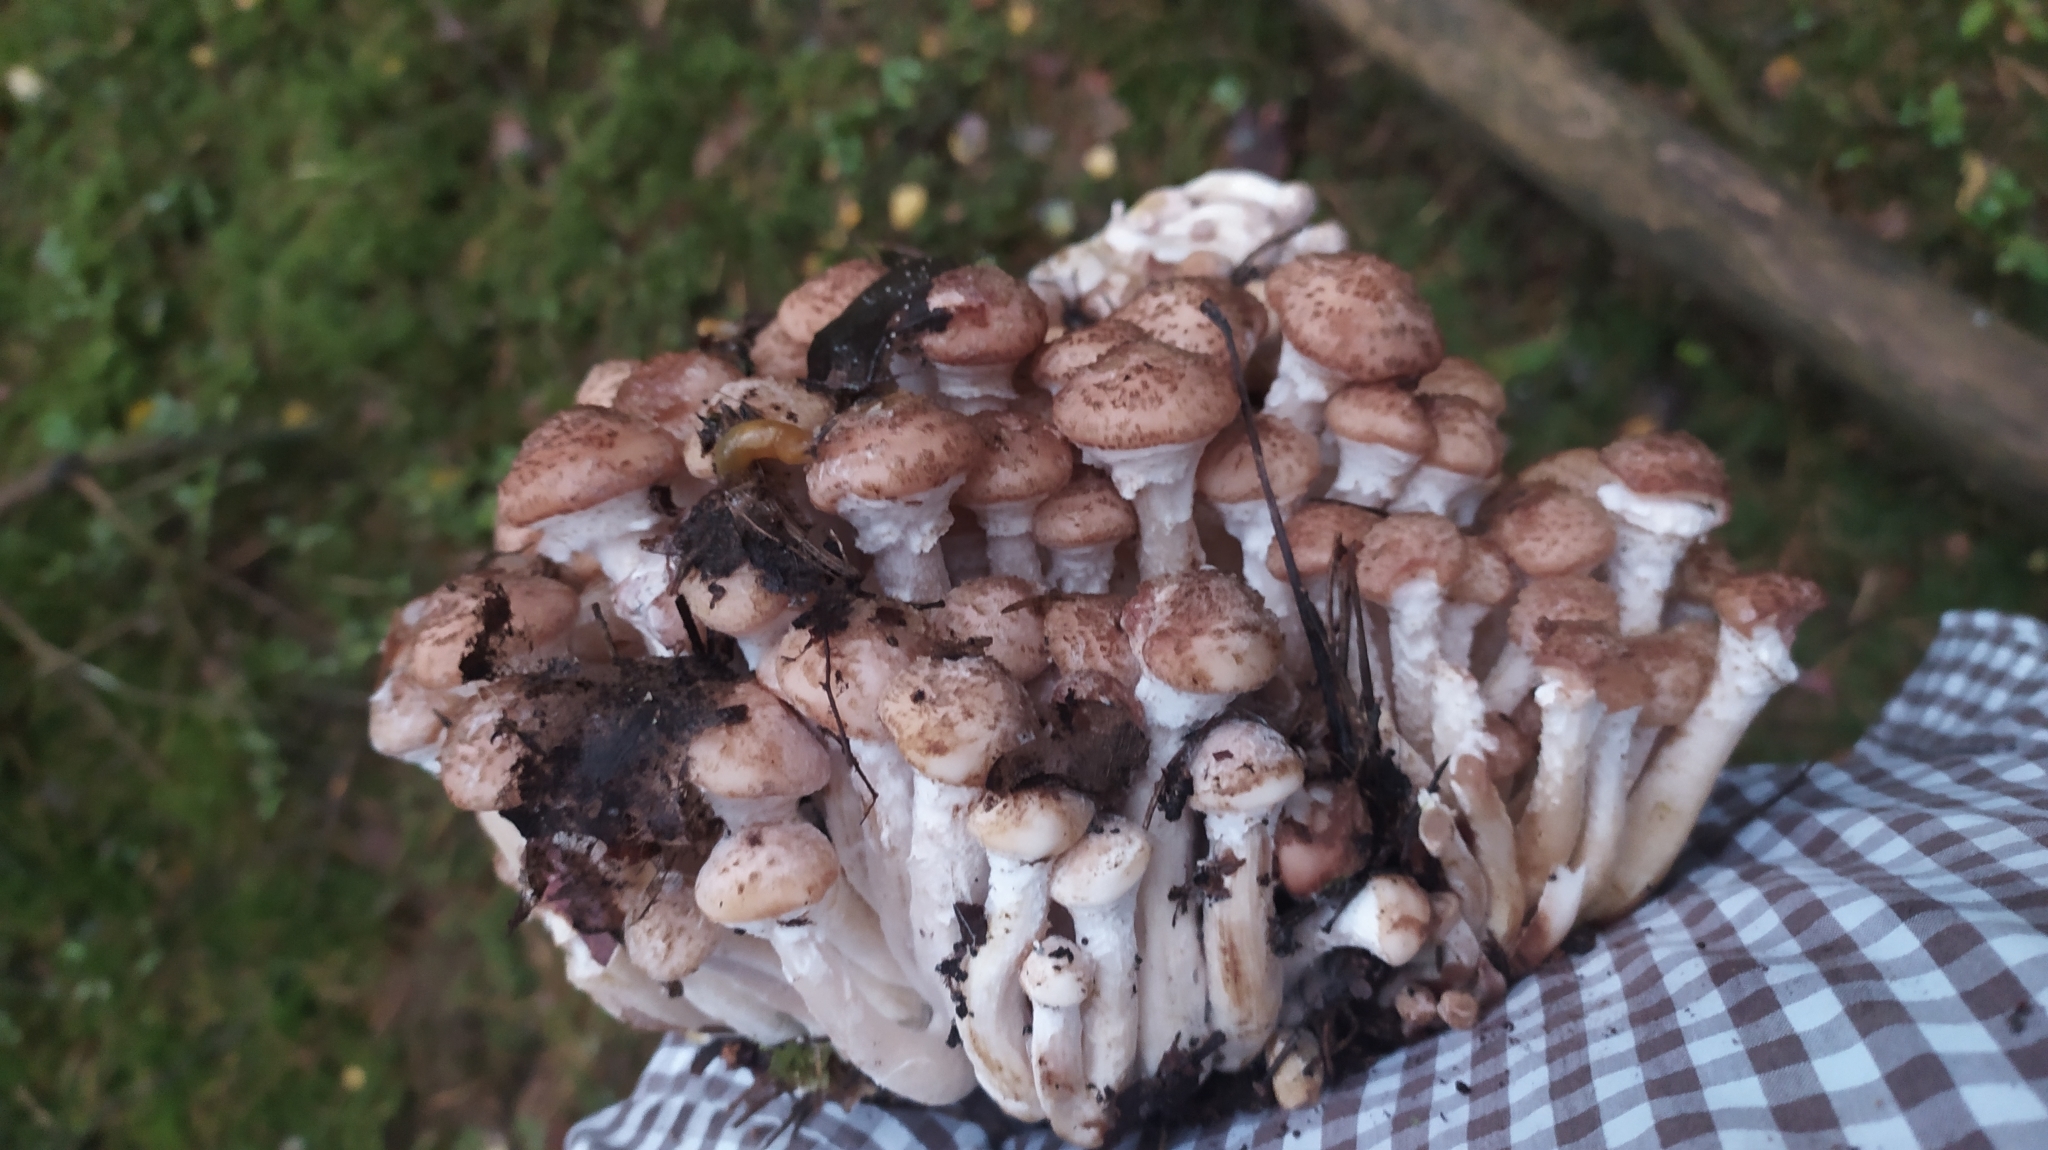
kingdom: Fungi
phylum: Basidiomycota
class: Agaricomycetes
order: Agaricales
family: Physalacriaceae
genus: Armillaria
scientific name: Armillaria borealis
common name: Northern honey fungus
